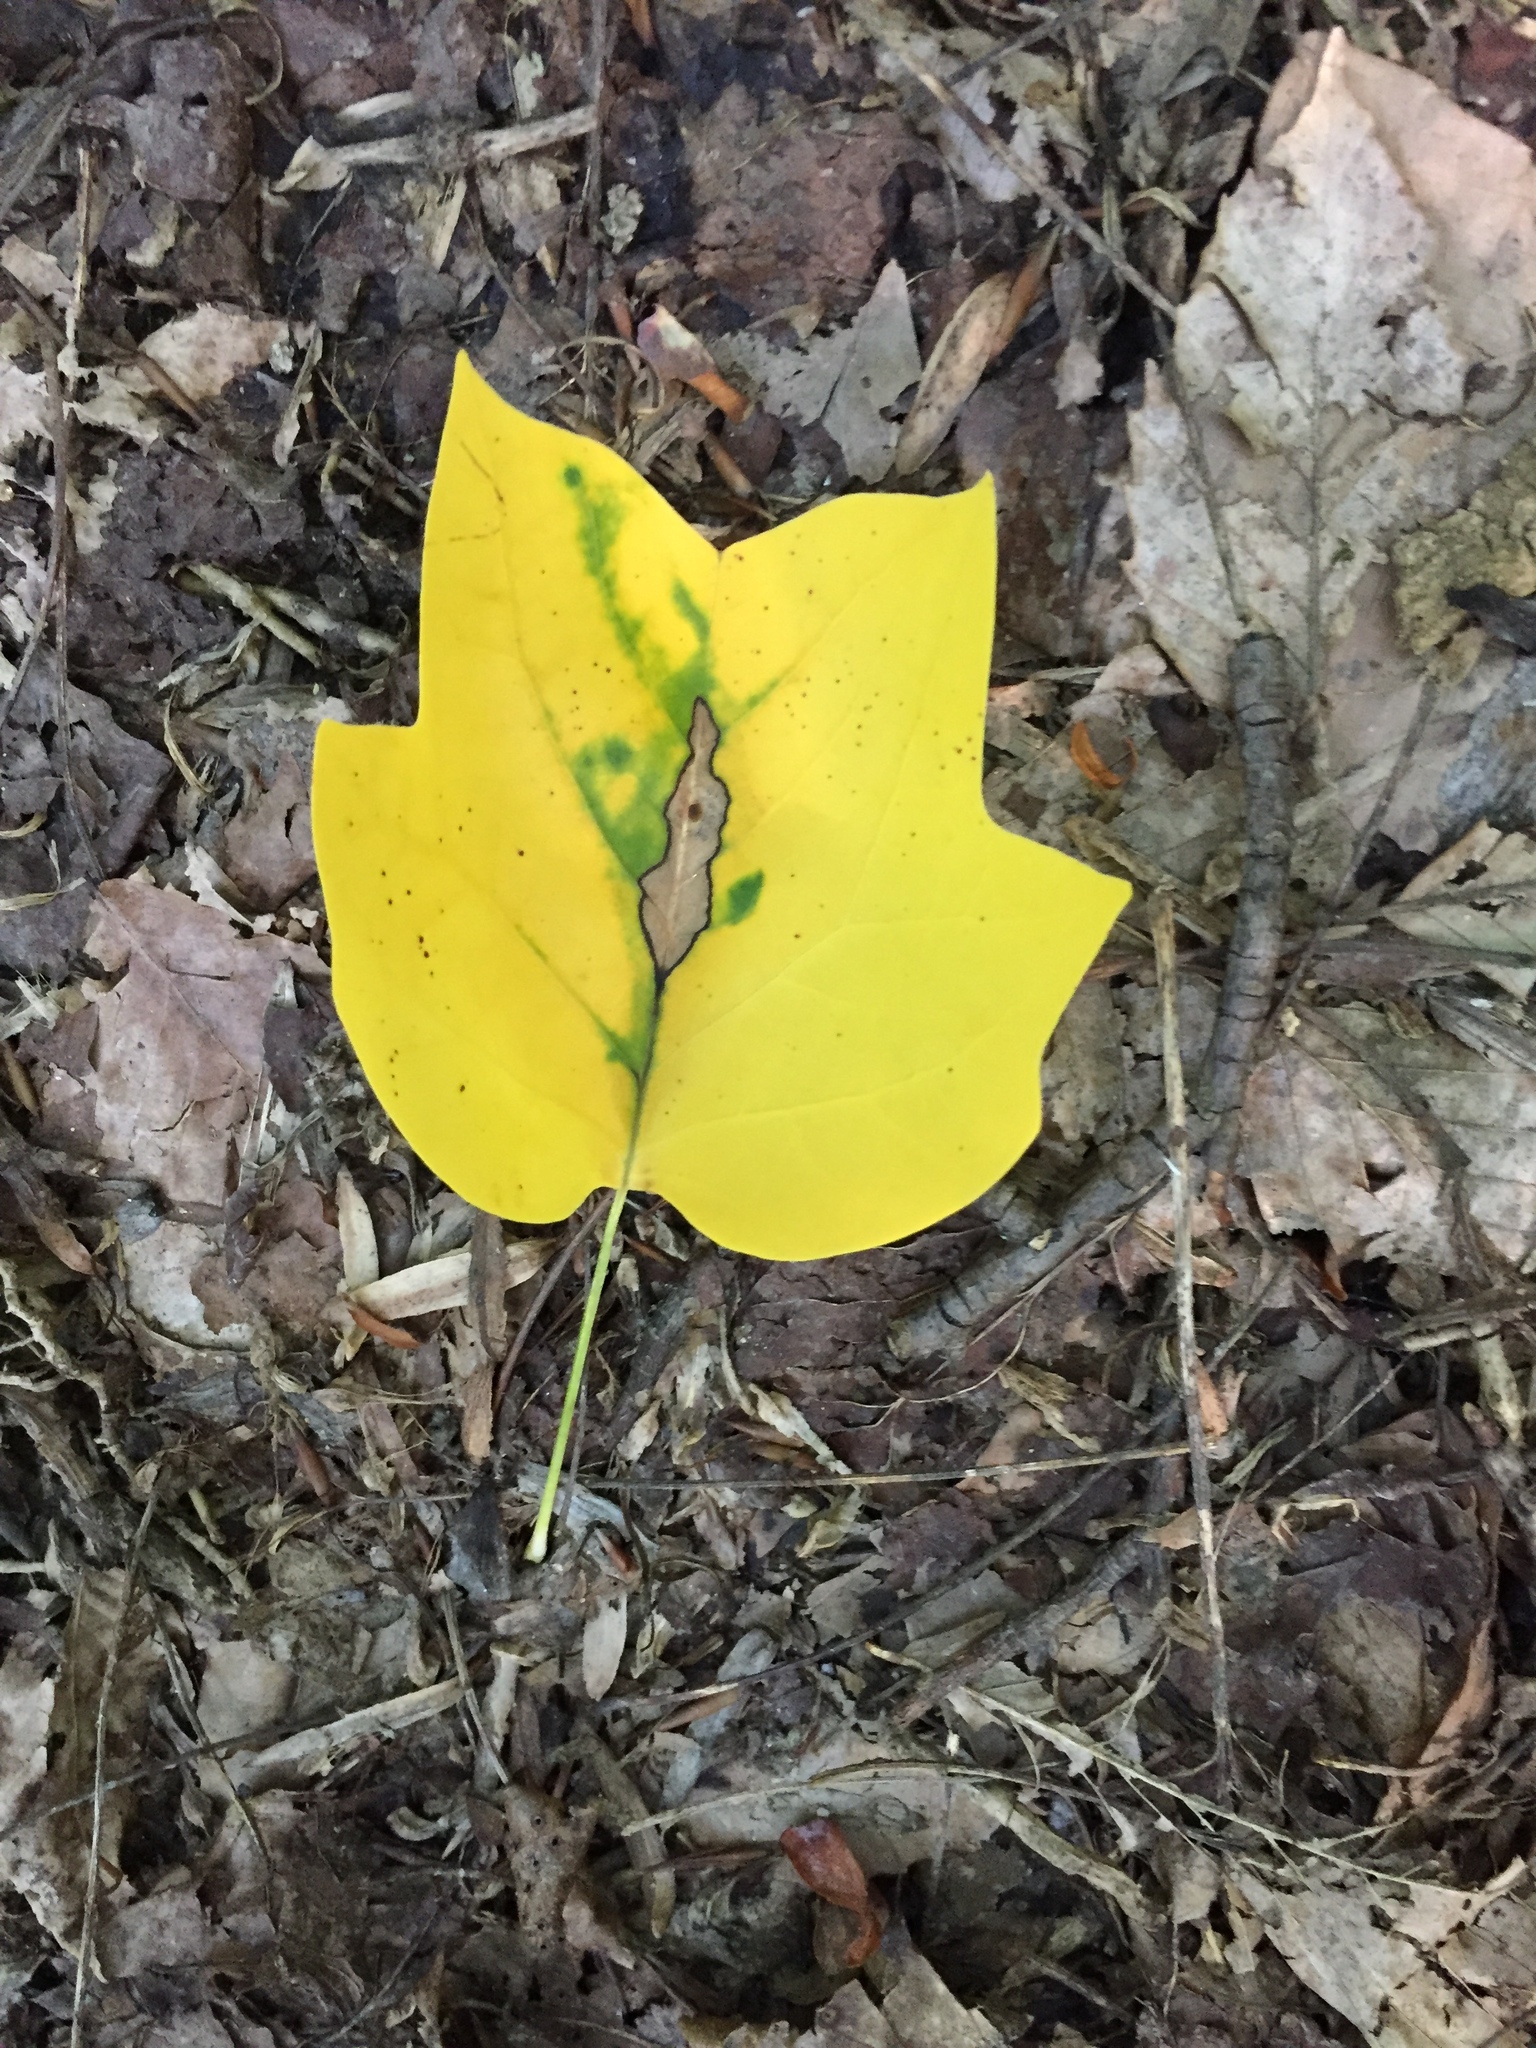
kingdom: Plantae
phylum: Tracheophyta
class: Magnoliopsida
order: Magnoliales
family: Magnoliaceae
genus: Liriodendron
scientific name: Liriodendron tulipifera
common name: Tulip tree
